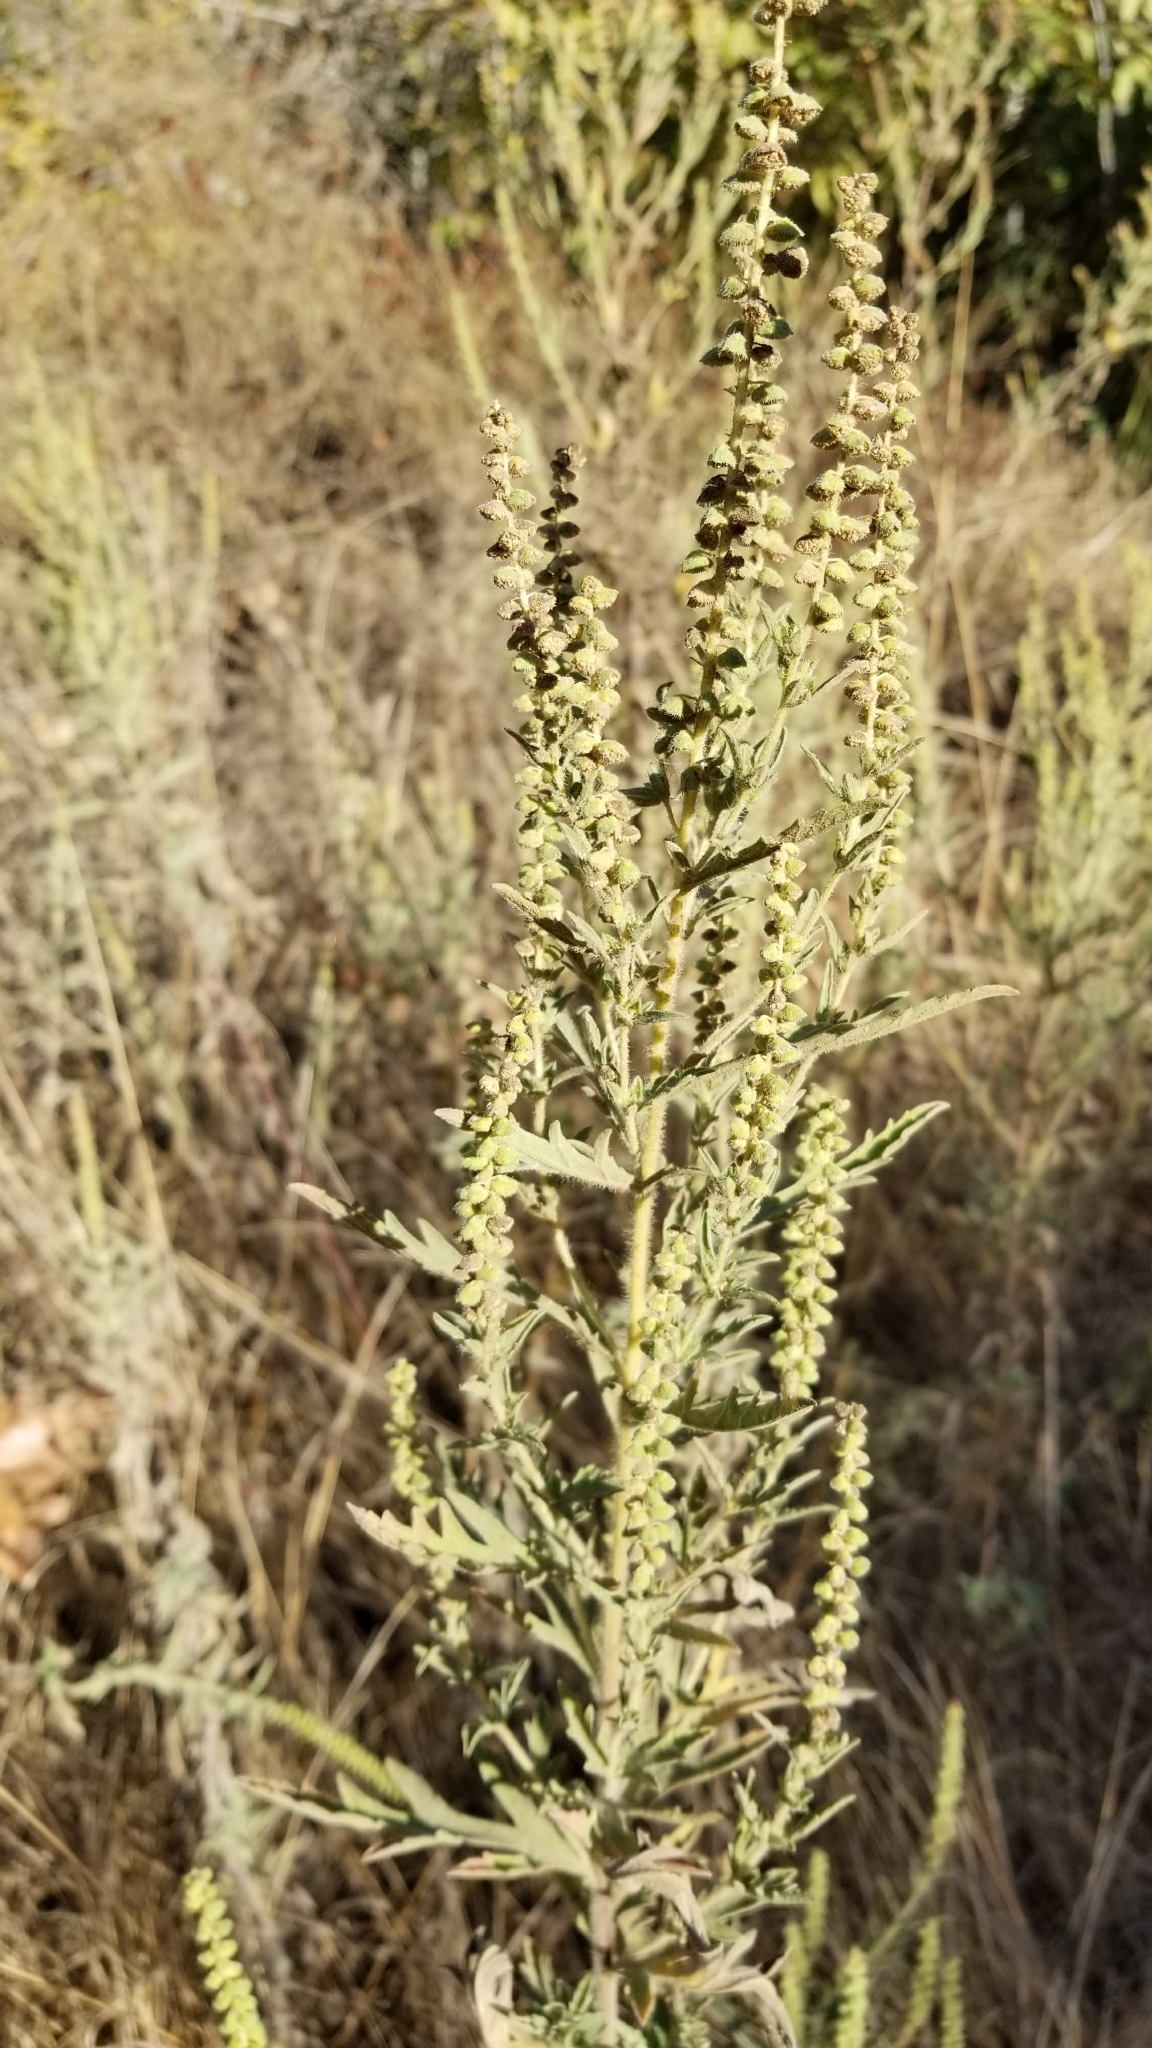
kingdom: Plantae
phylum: Tracheophyta
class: Magnoliopsida
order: Asterales
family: Asteraceae
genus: Ambrosia
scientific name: Ambrosia psilostachya
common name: Perennial ragweed
